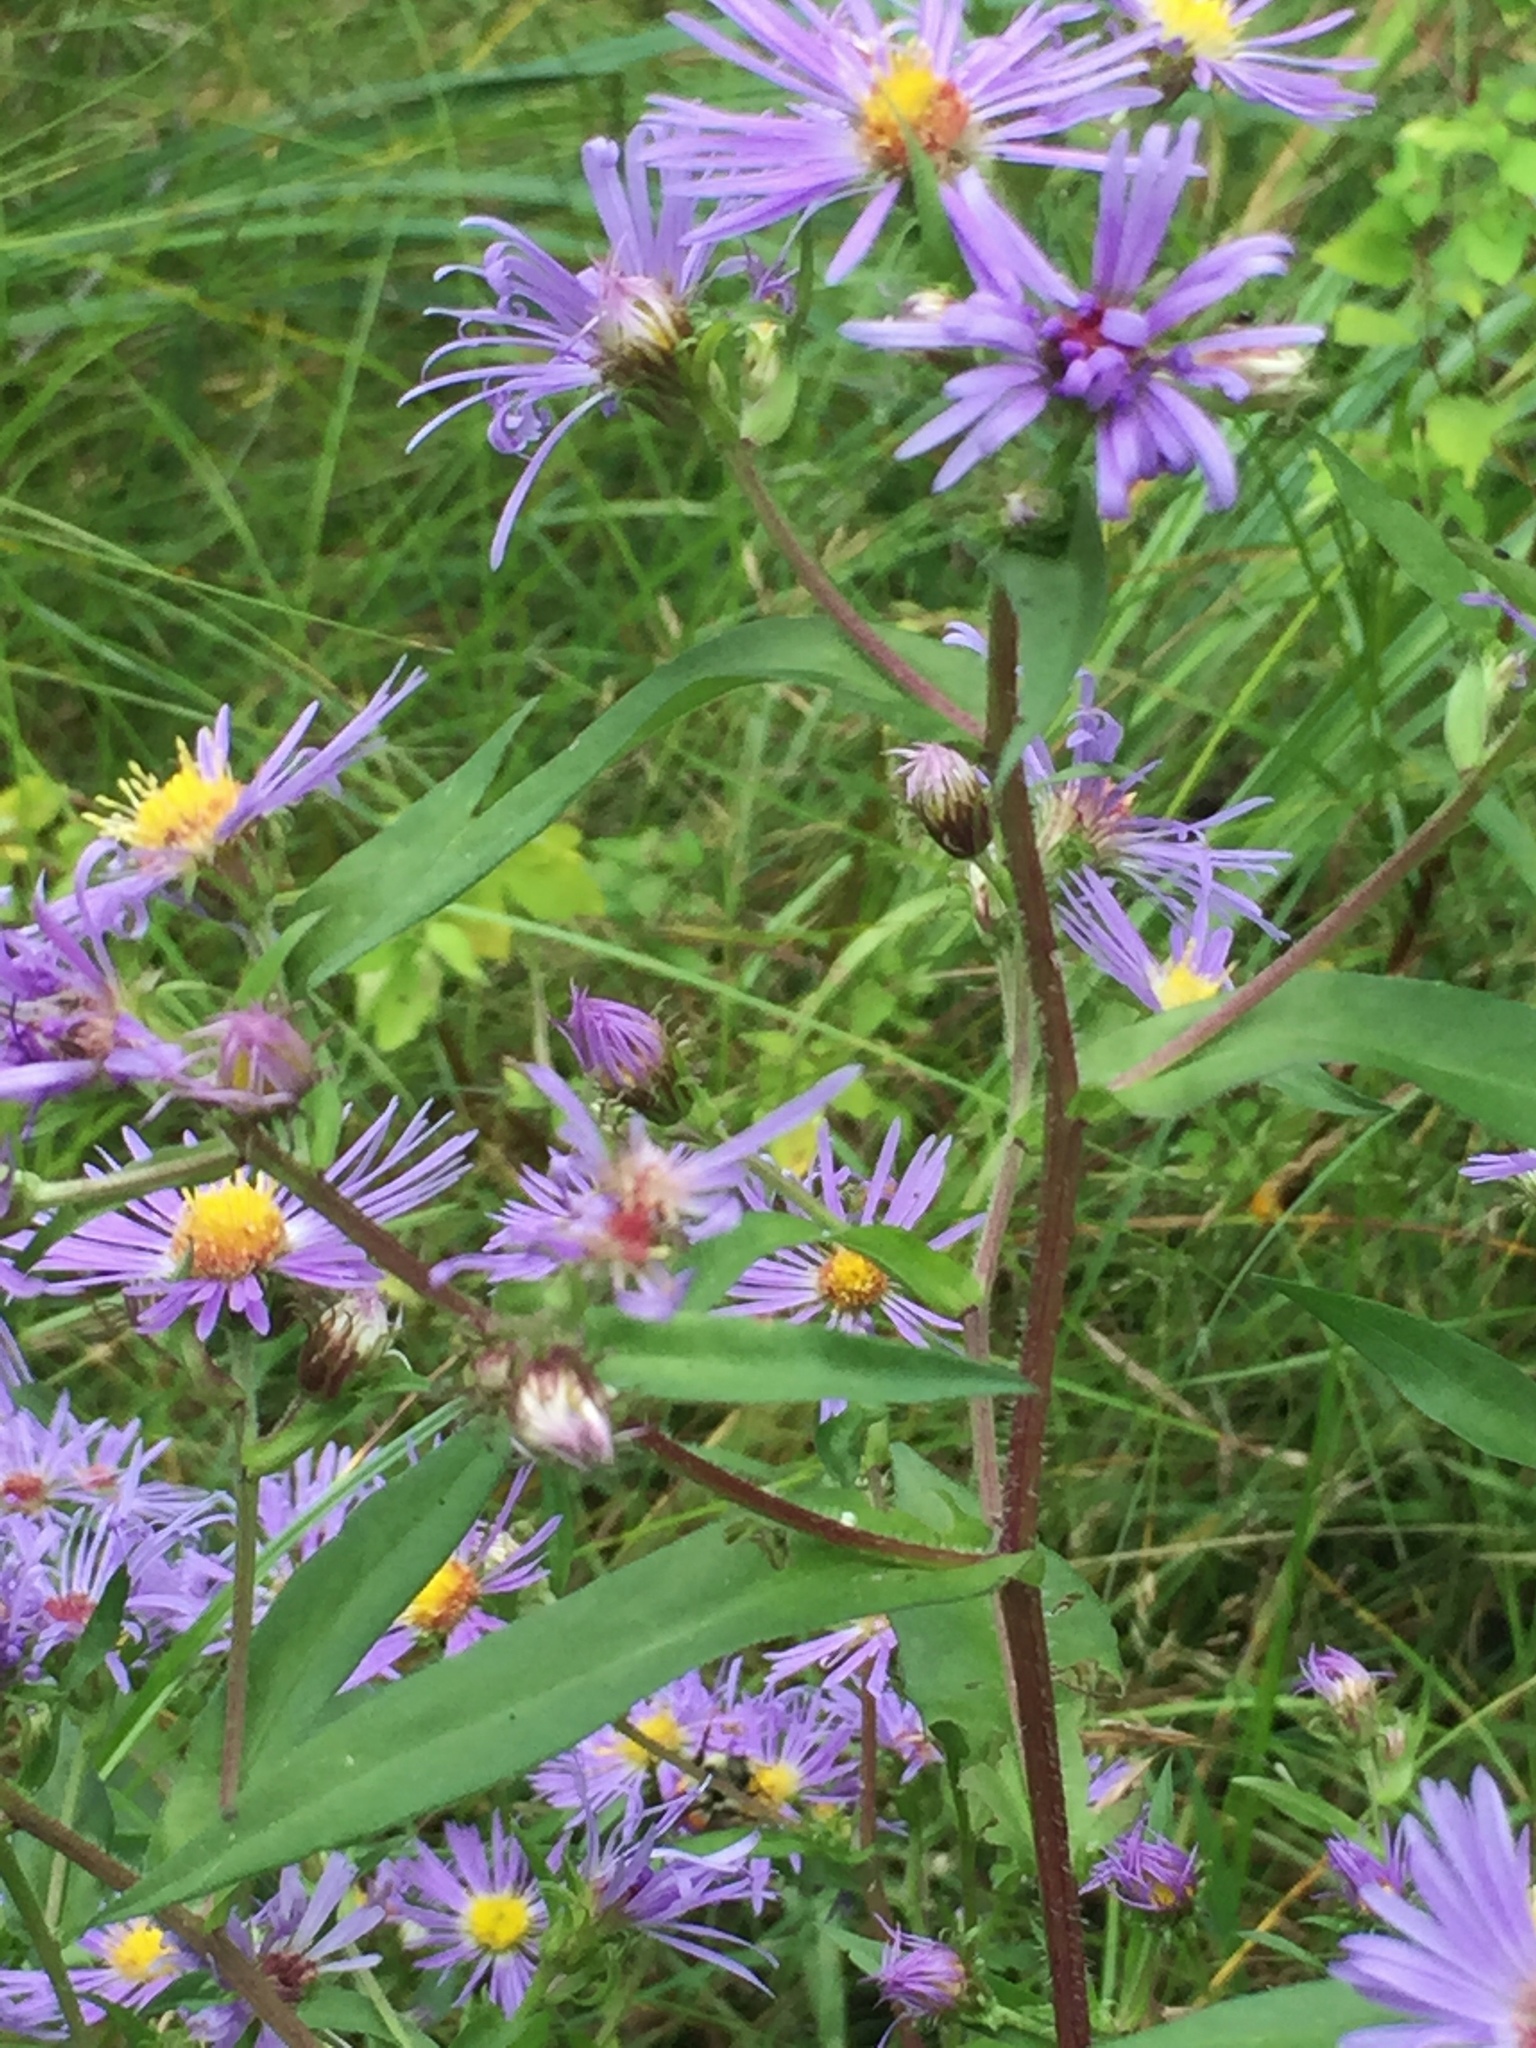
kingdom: Plantae
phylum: Tracheophyta
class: Magnoliopsida
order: Asterales
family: Asteraceae
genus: Symphyotrichum
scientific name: Symphyotrichum puniceum
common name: Bog aster
